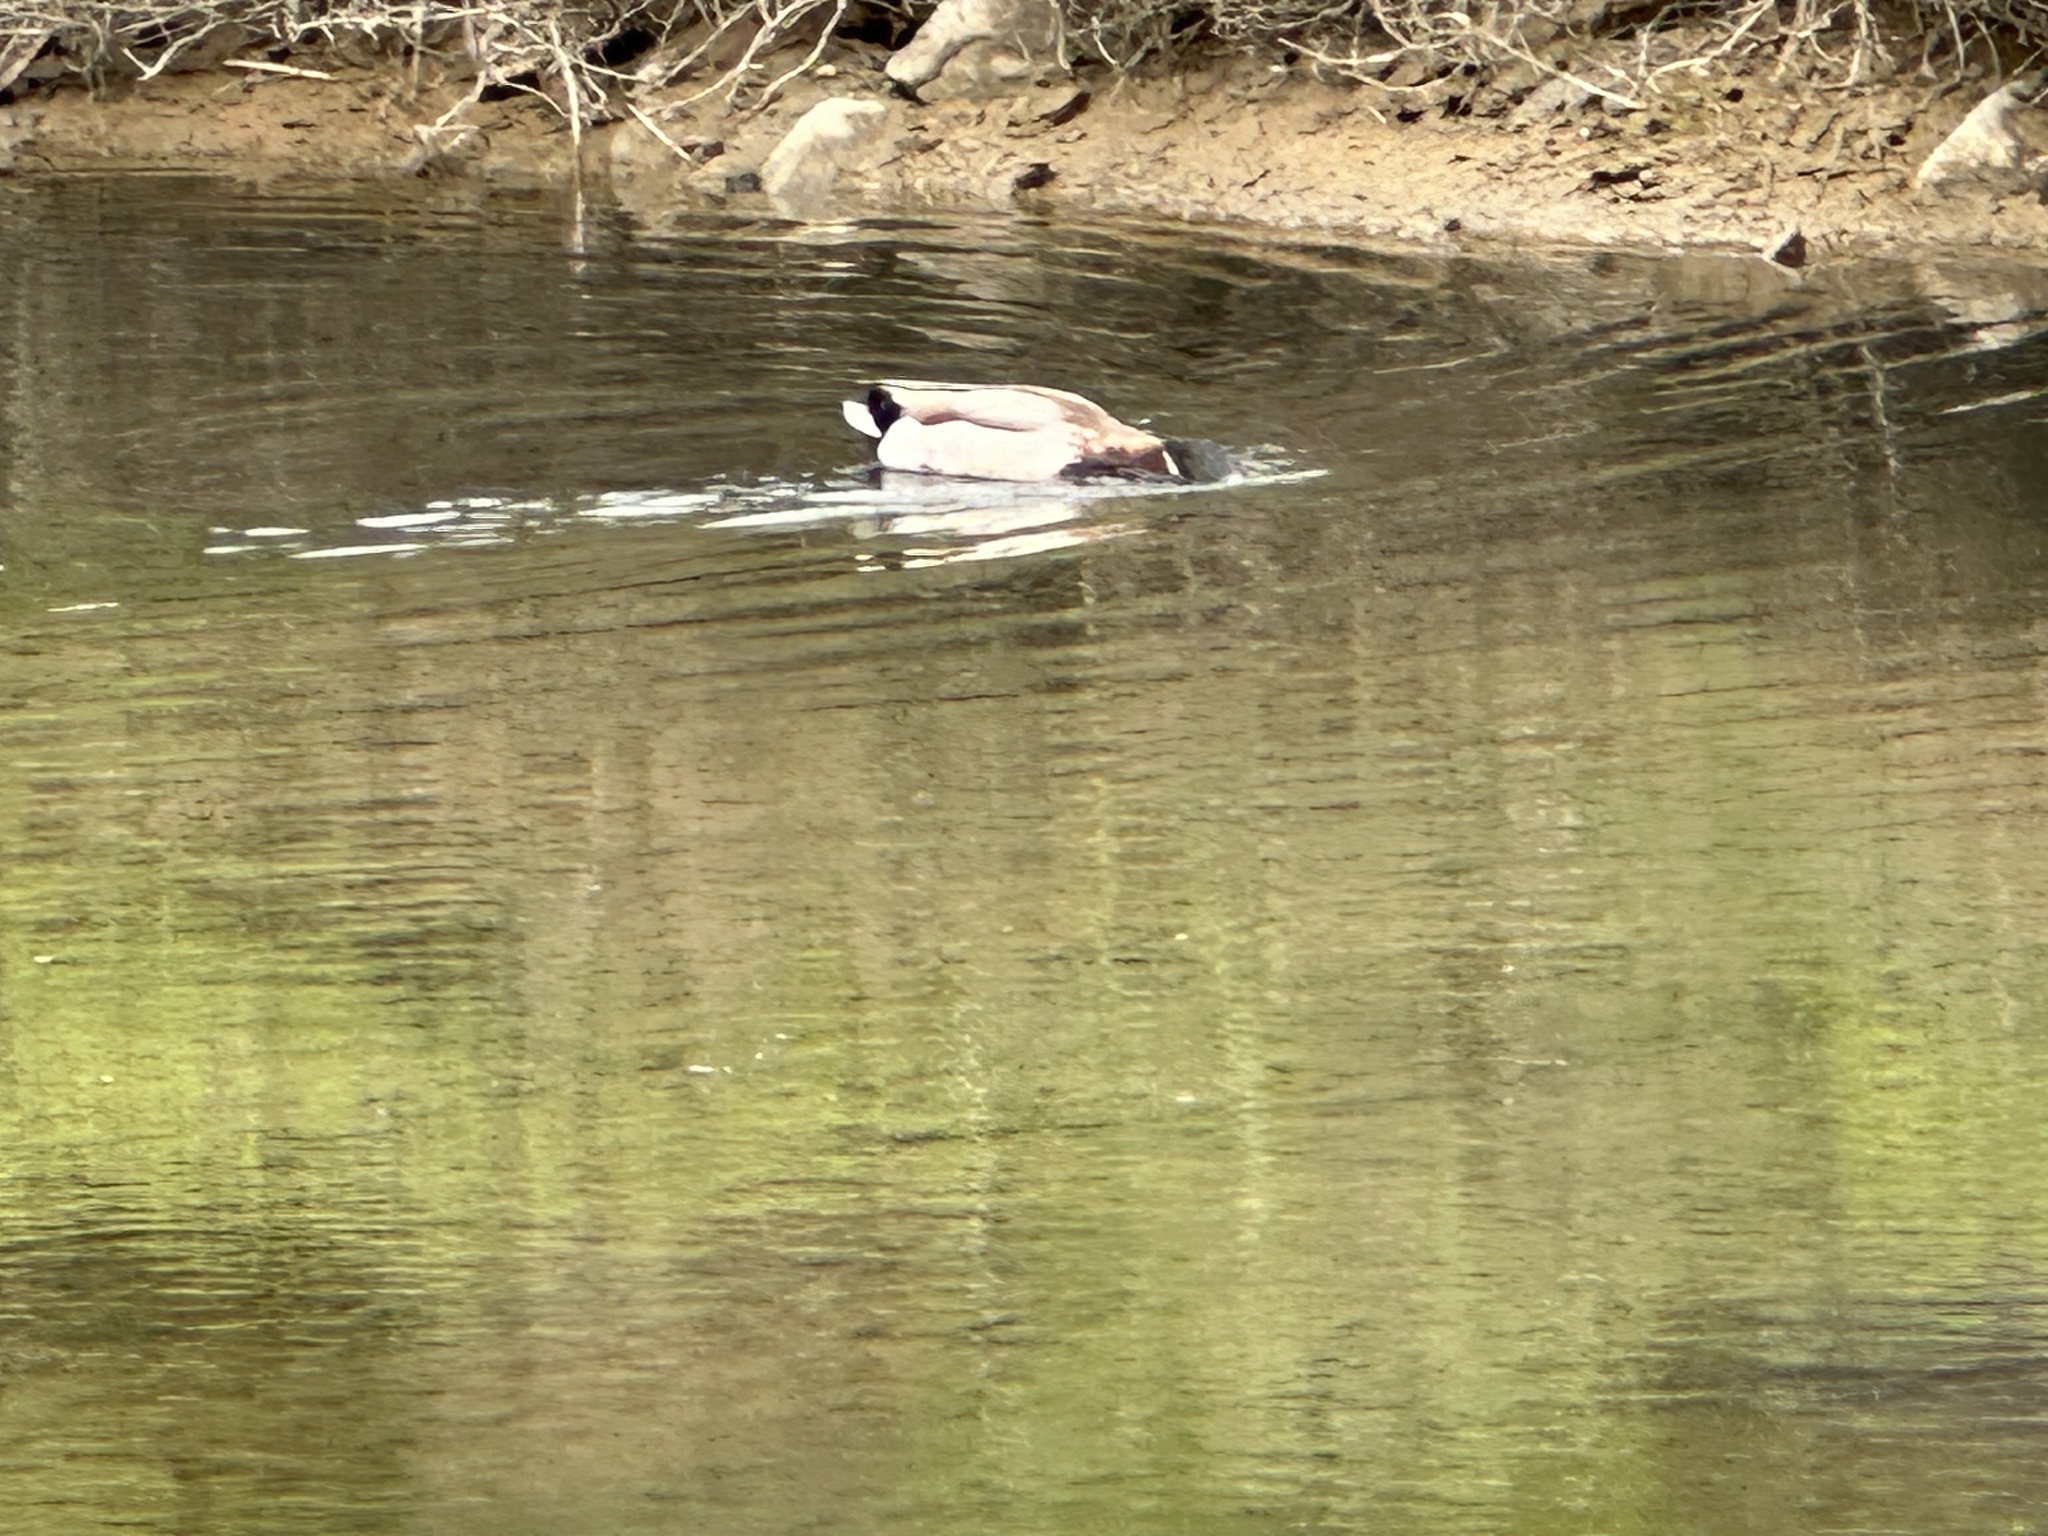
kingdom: Animalia
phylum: Chordata
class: Aves
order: Anseriformes
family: Anatidae
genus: Anas
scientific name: Anas platyrhynchos
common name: Mallard
